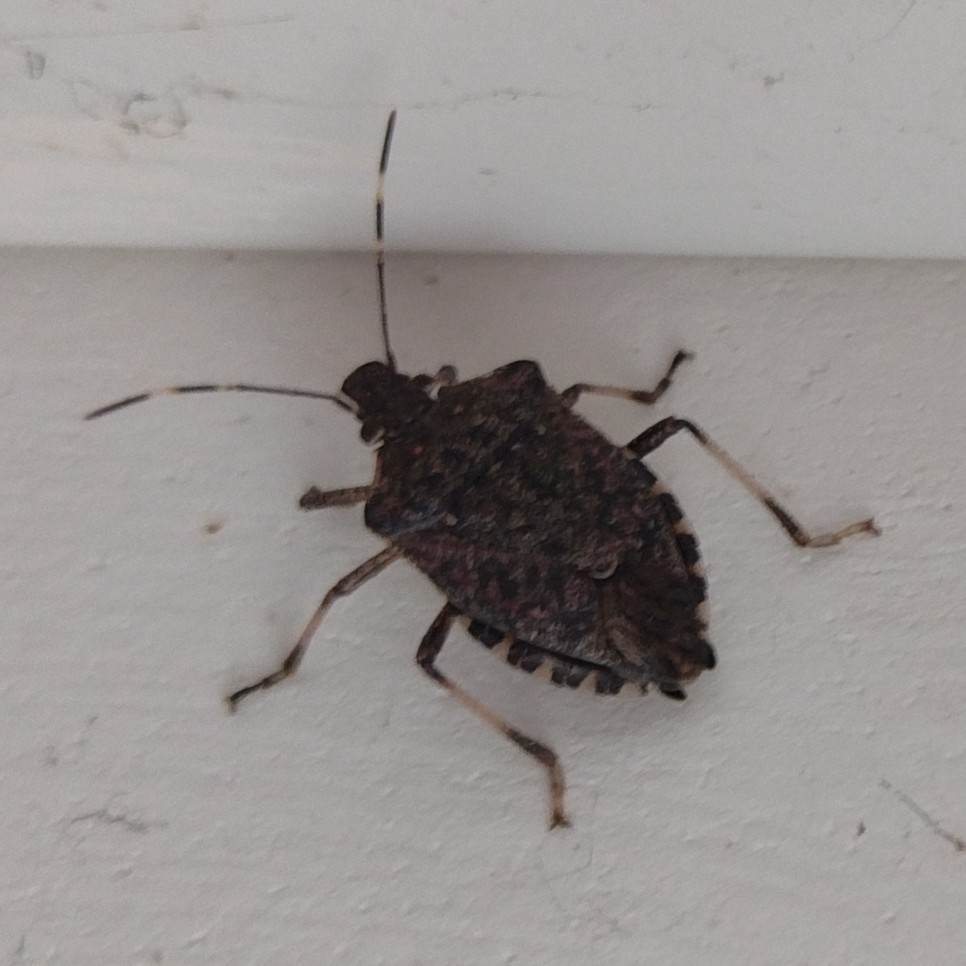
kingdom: Animalia
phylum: Arthropoda
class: Insecta
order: Hemiptera
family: Pentatomidae
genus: Halyomorpha
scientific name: Halyomorpha halys
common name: Brown marmorated stink bug
